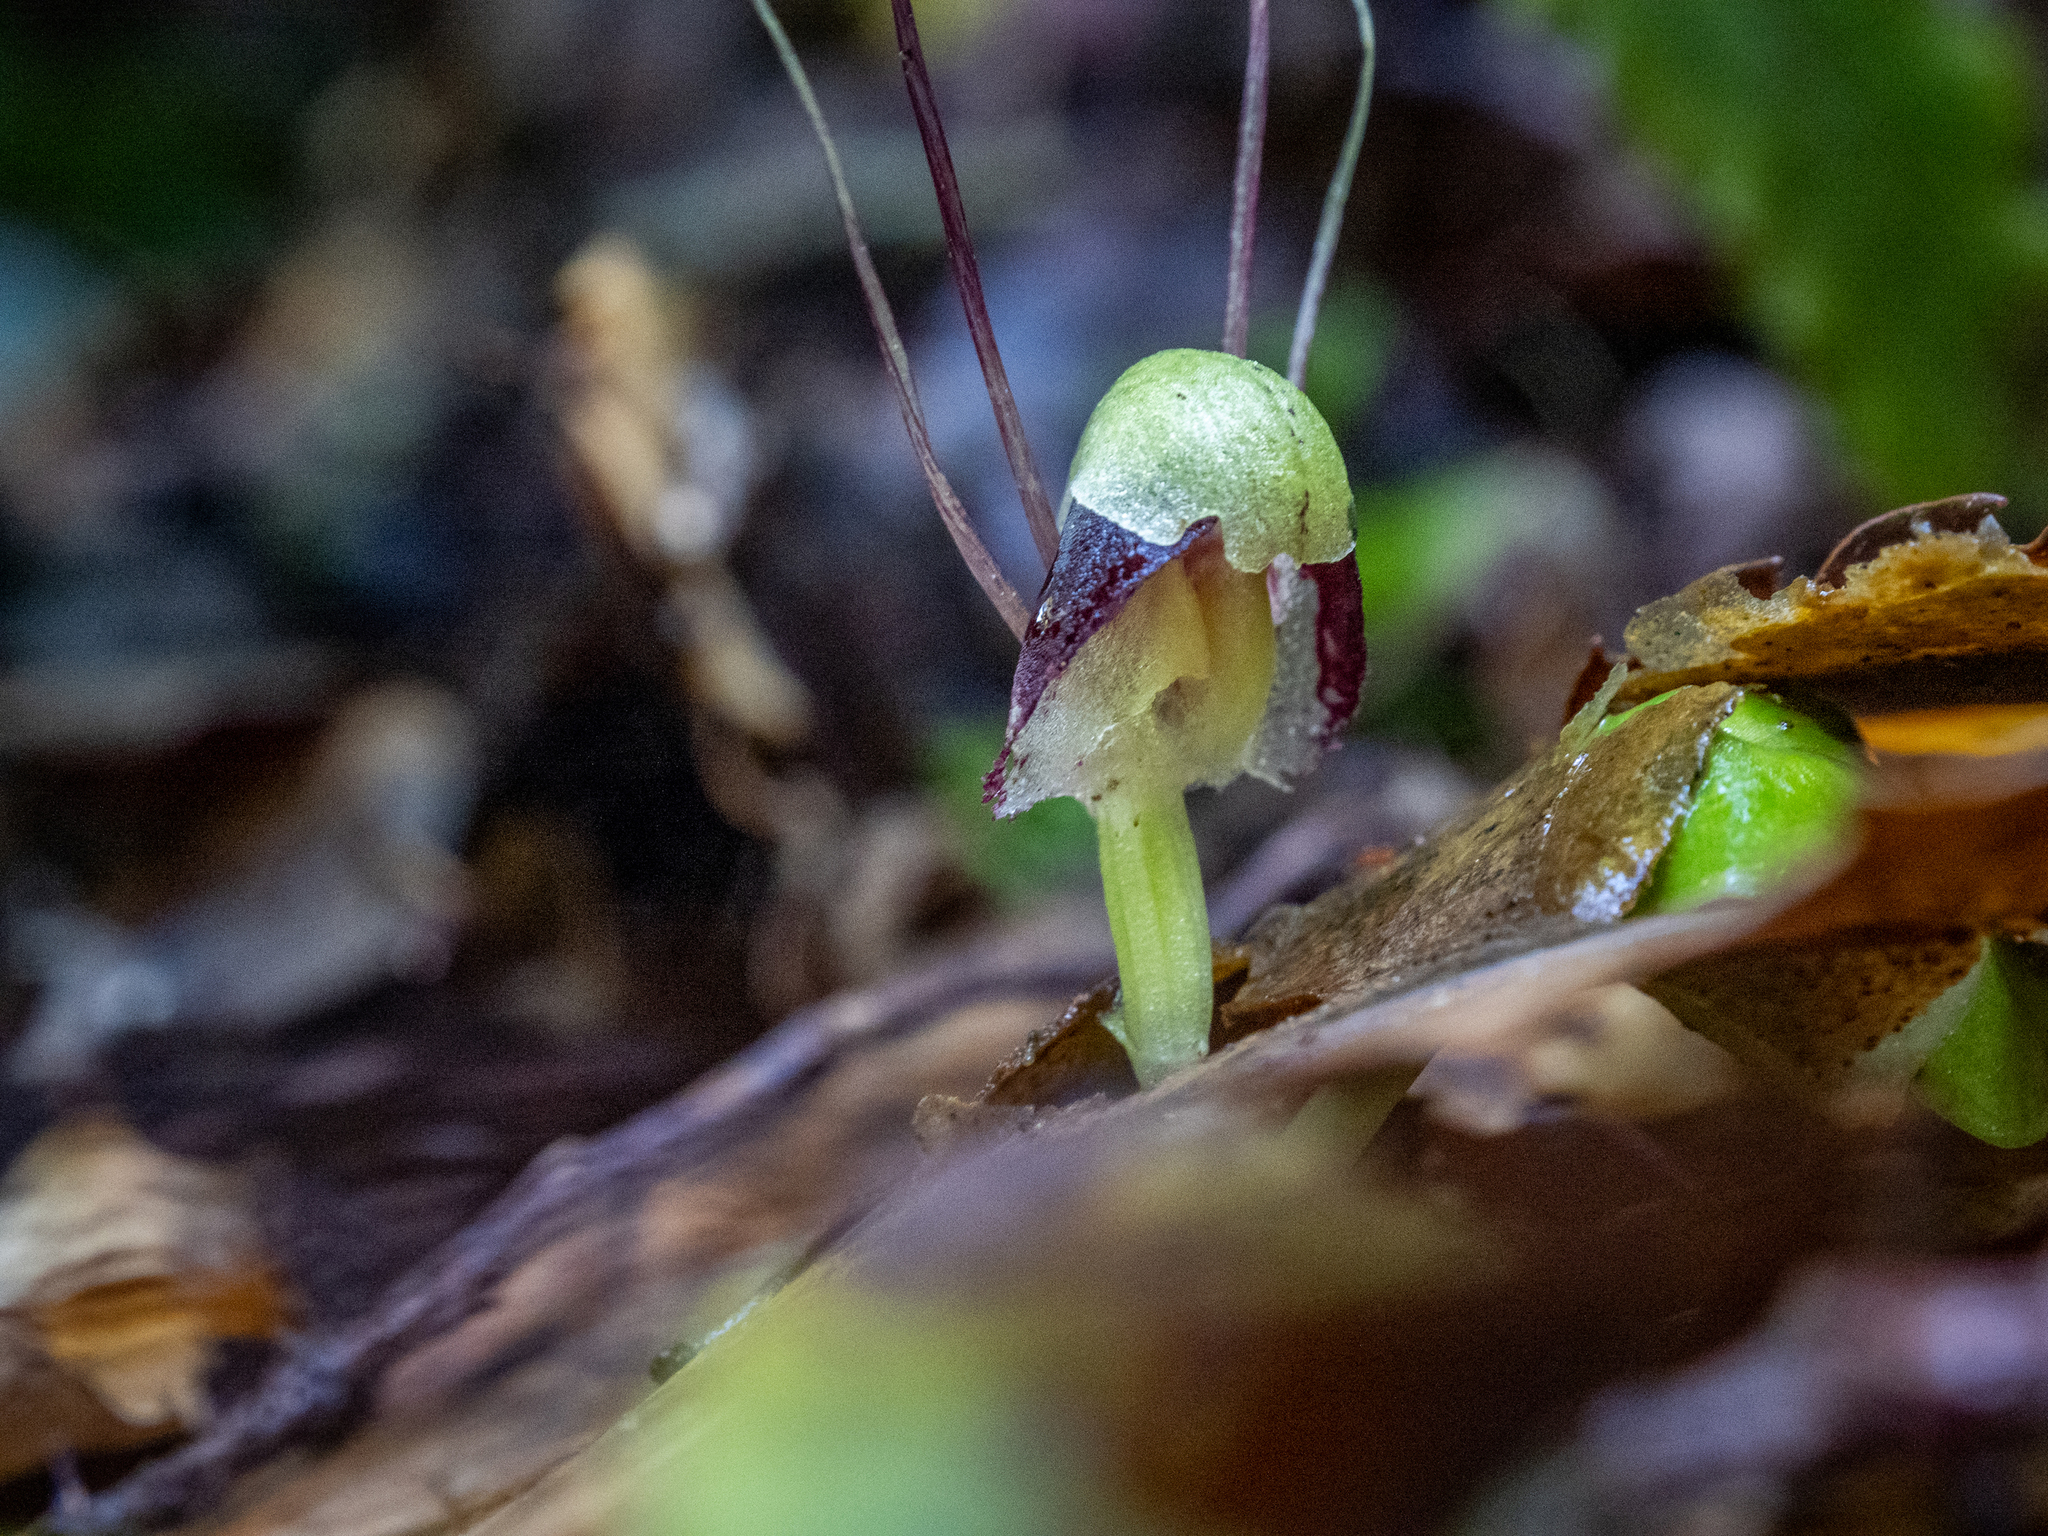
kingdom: Plantae
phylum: Tracheophyta
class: Liliopsida
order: Asparagales
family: Orchidaceae
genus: Corybas
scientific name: Corybas vitreus
